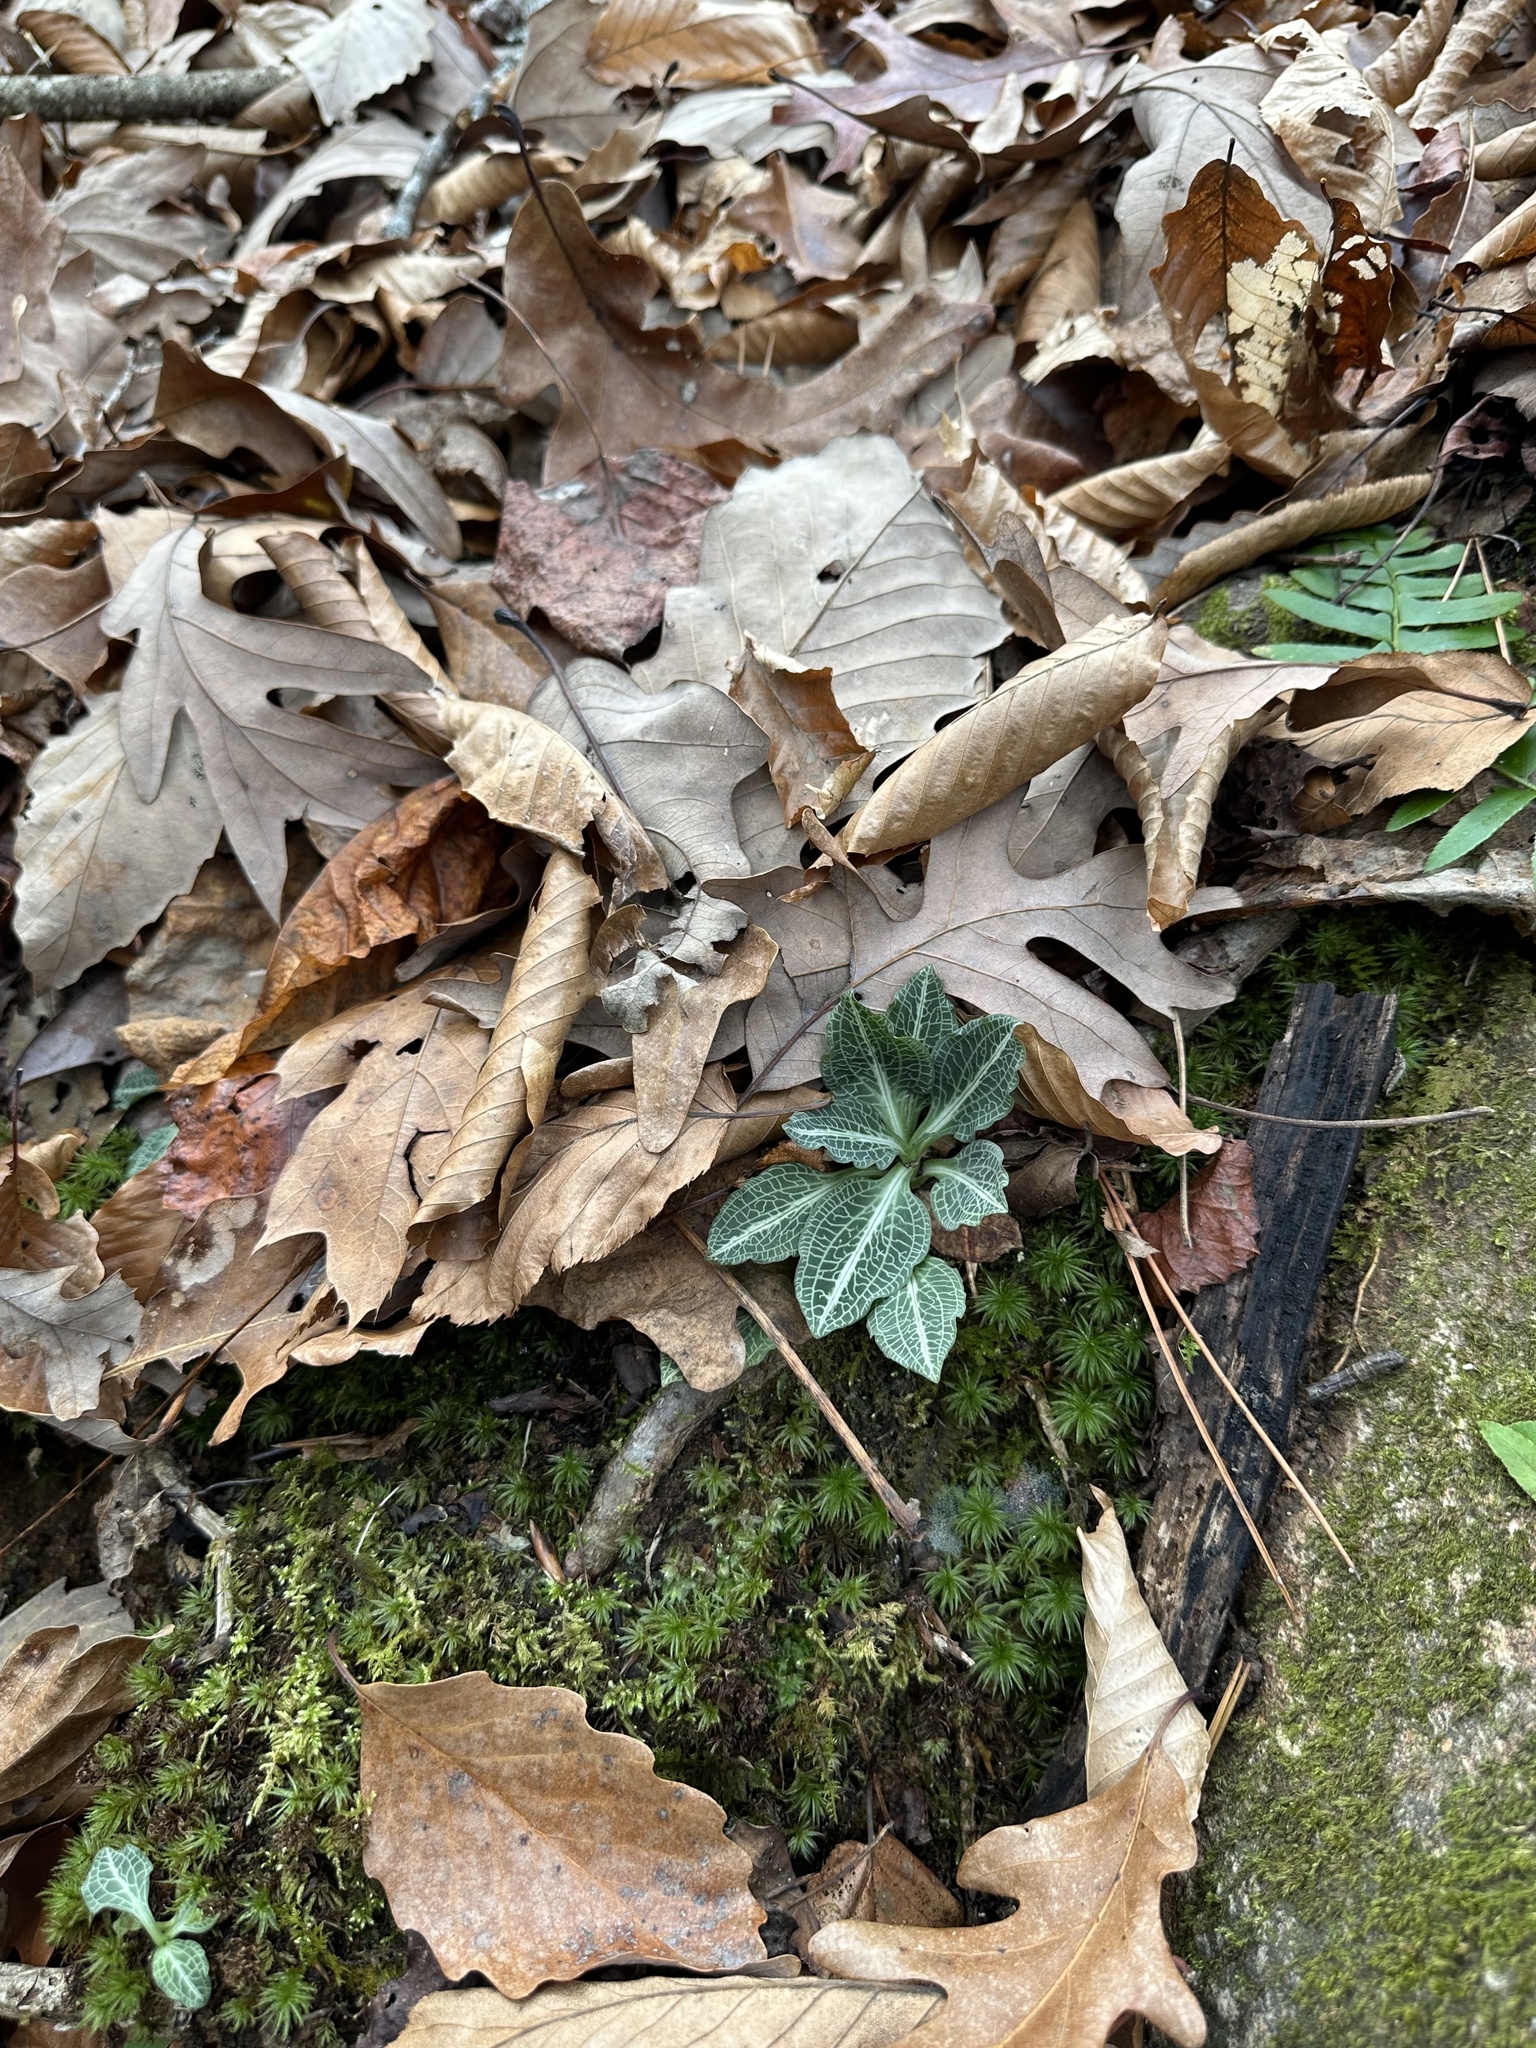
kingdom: Plantae
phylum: Tracheophyta
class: Liliopsida
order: Asparagales
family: Orchidaceae
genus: Goodyera
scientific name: Goodyera pubescens
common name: Downy rattlesnake-plantain
